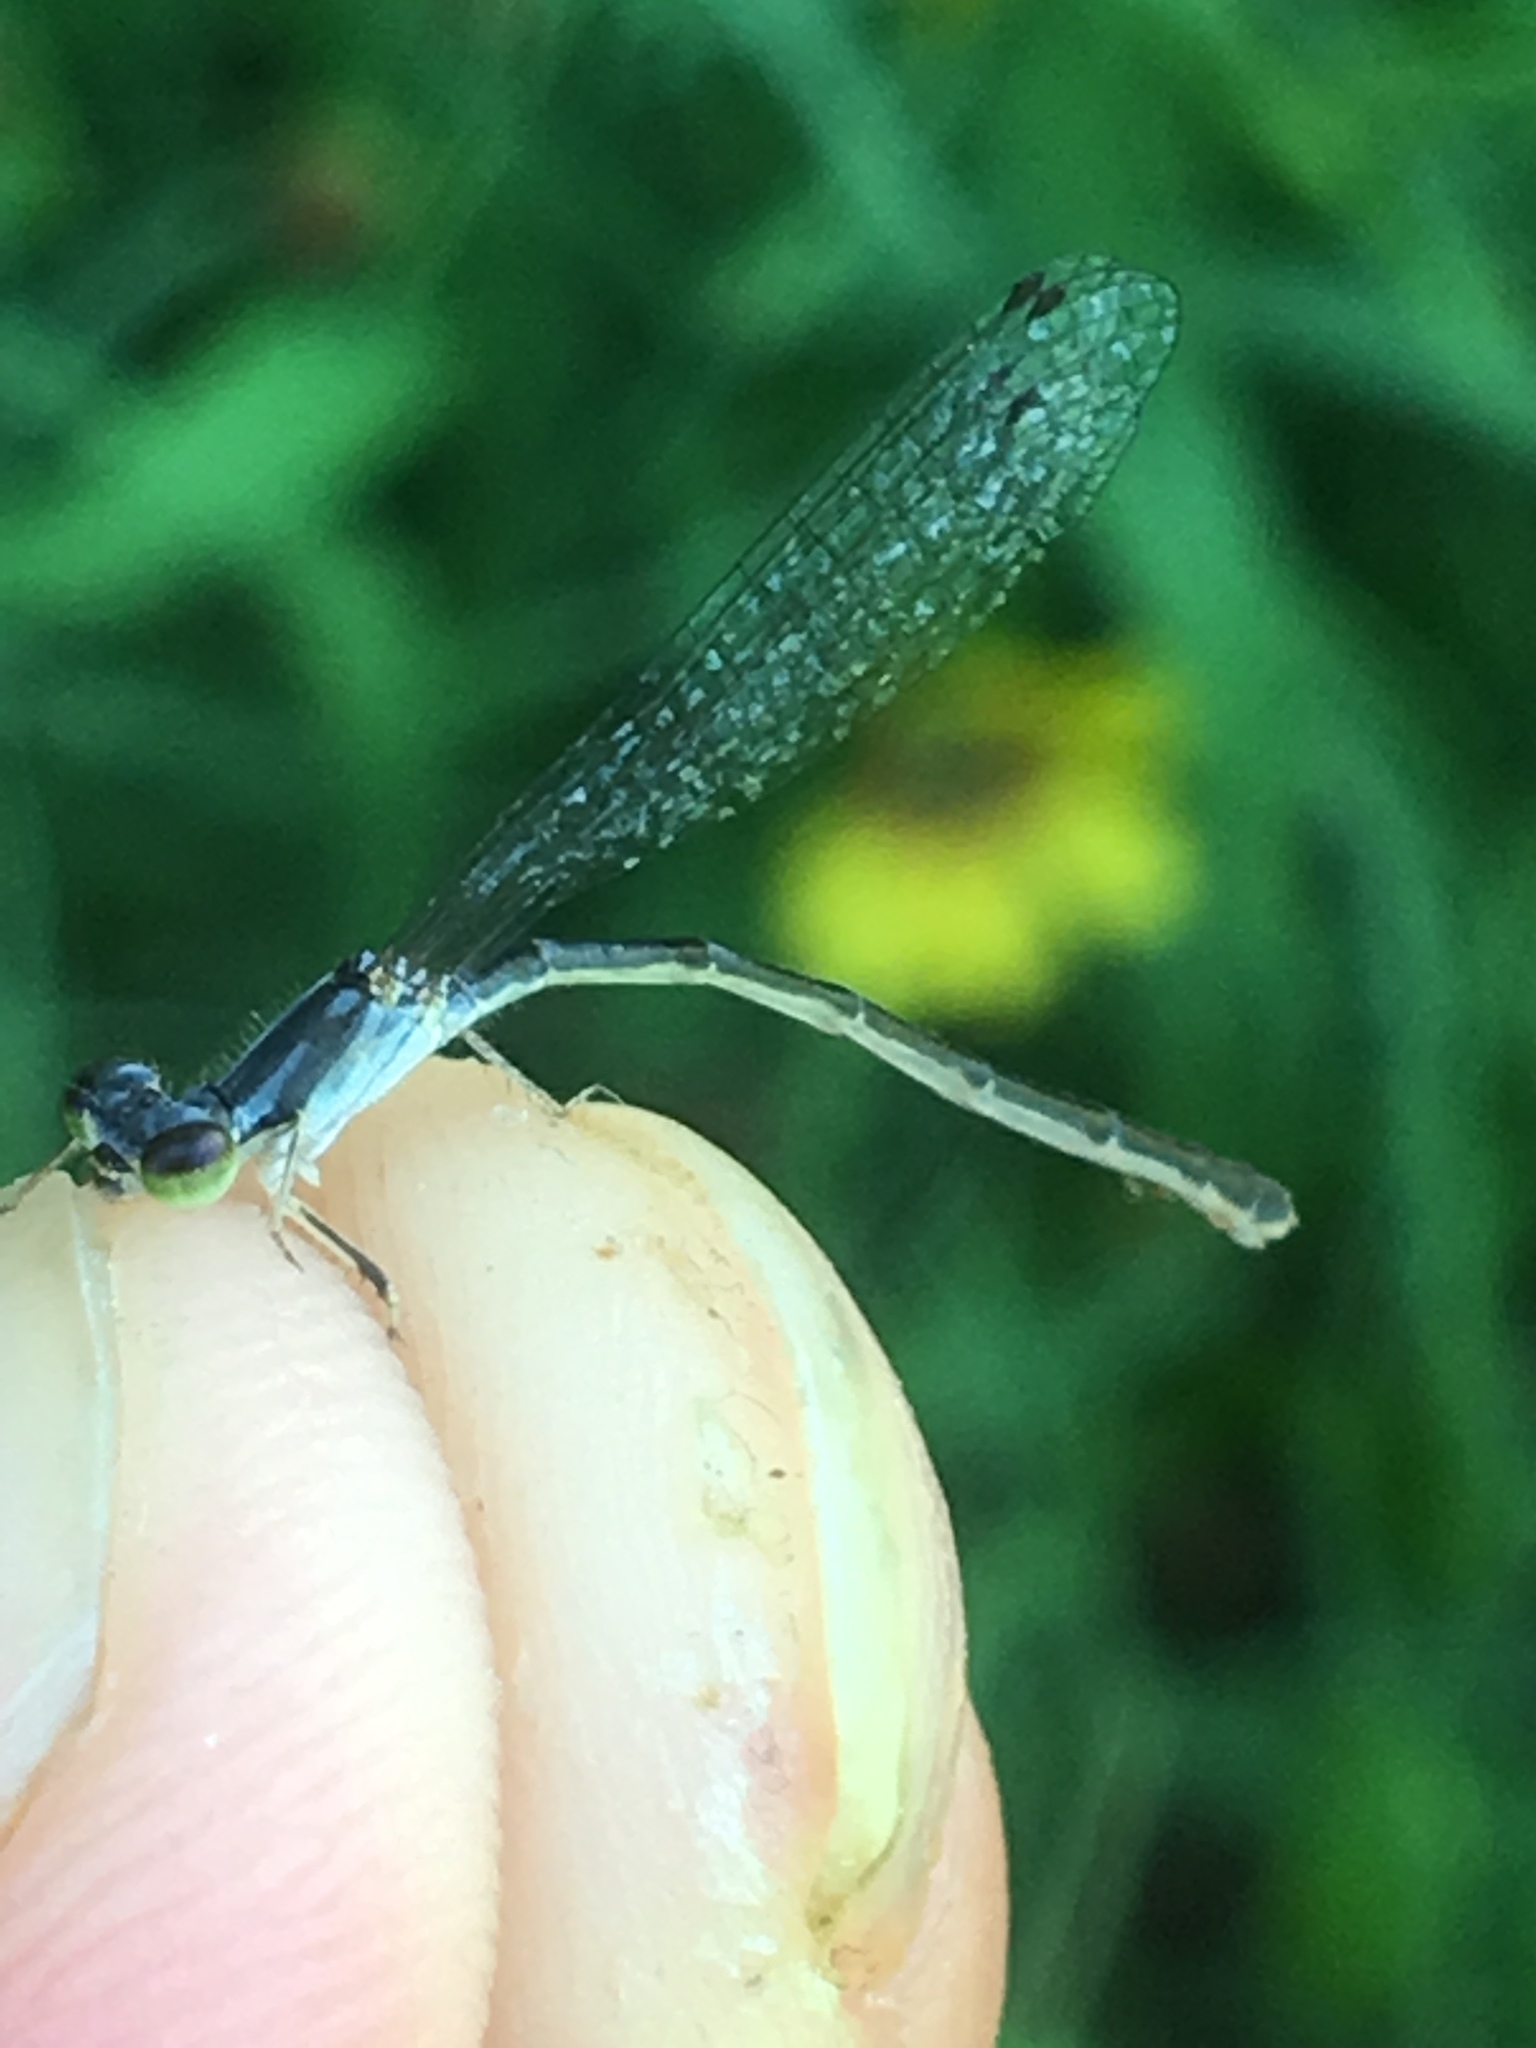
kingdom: Animalia
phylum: Arthropoda
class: Insecta
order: Odonata
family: Coenagrionidae
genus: Ischnura
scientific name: Ischnura posita
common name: Fragile forktail
